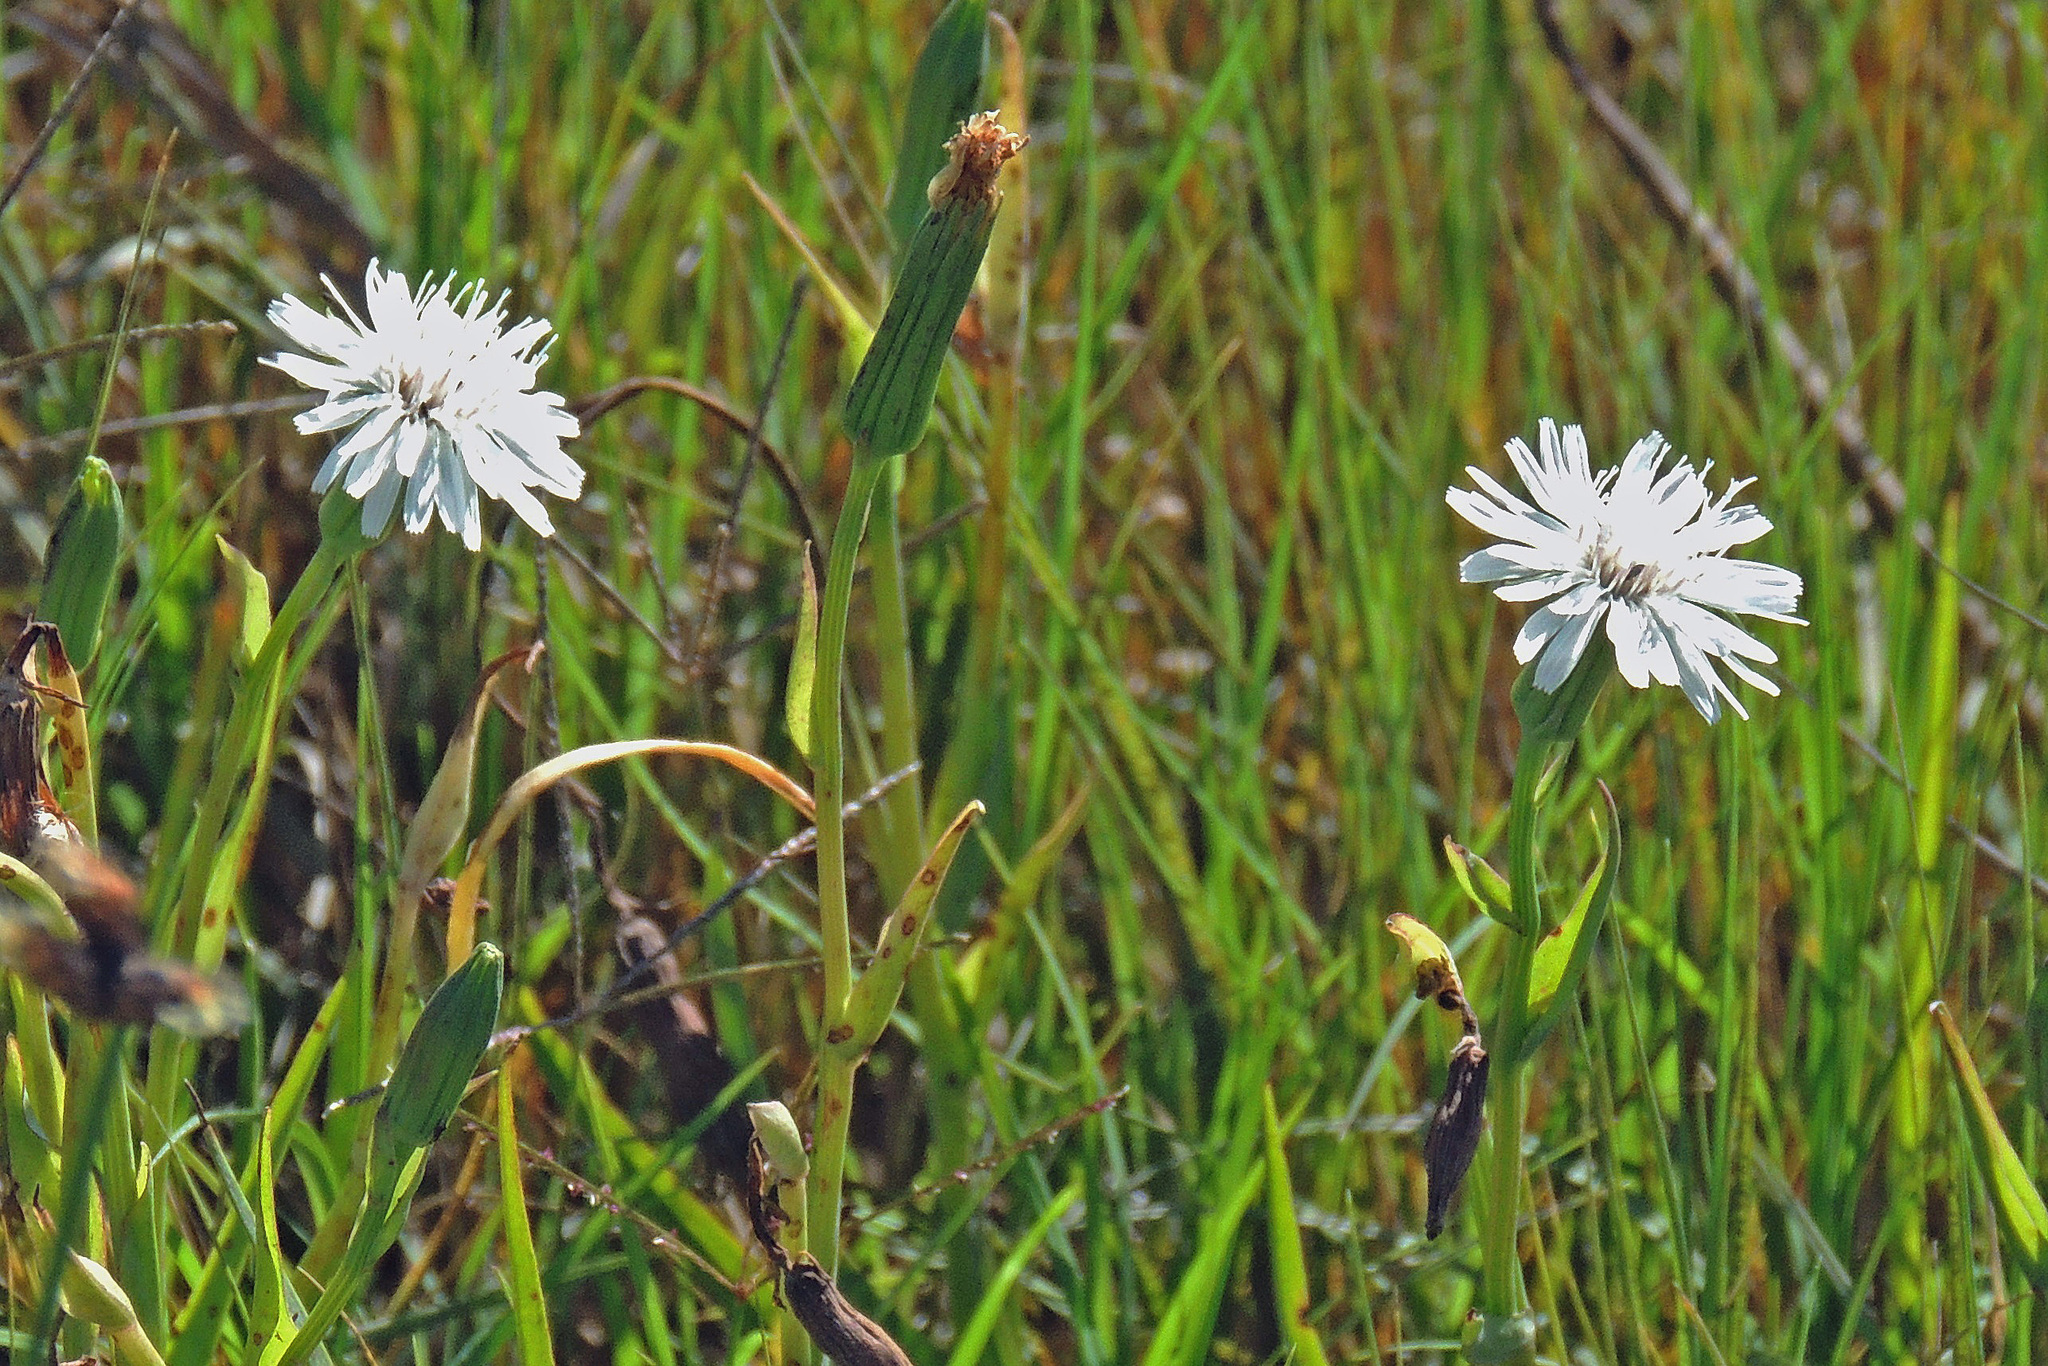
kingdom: Plantae
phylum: Tracheophyta
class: Magnoliopsida
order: Asterales
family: Asteraceae
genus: Picrosia
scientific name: Picrosia longifolia
